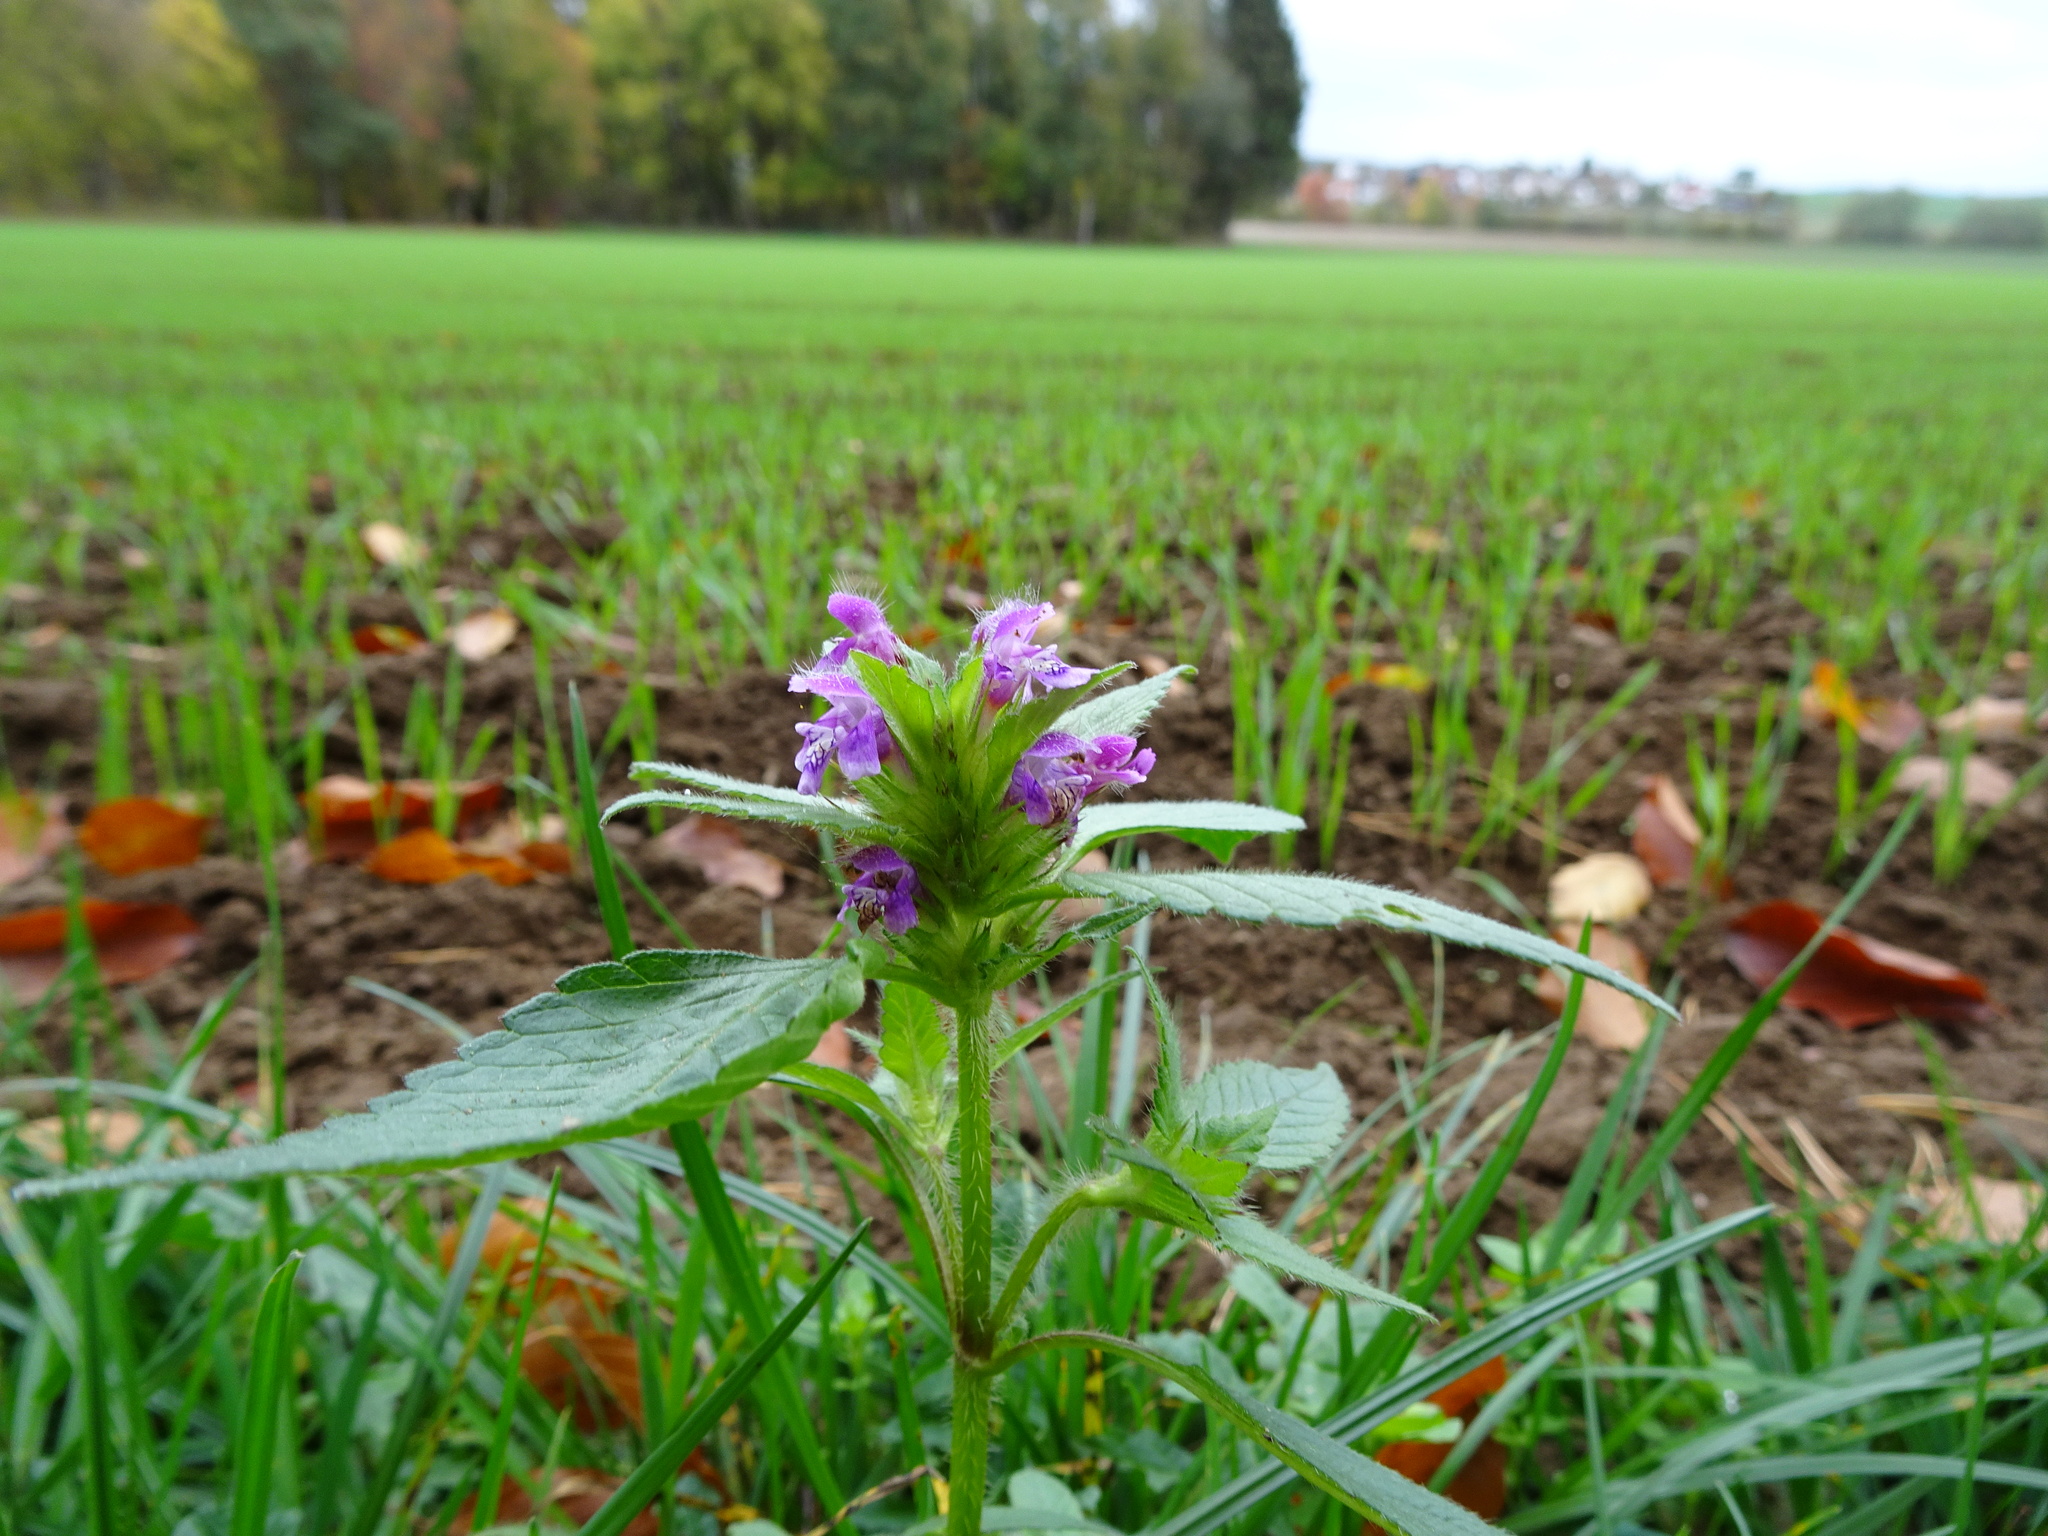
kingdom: Plantae
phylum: Tracheophyta
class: Magnoliopsida
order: Lamiales
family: Lamiaceae
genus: Galeopsis
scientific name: Galeopsis tetrahit
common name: Common hemp-nettle
